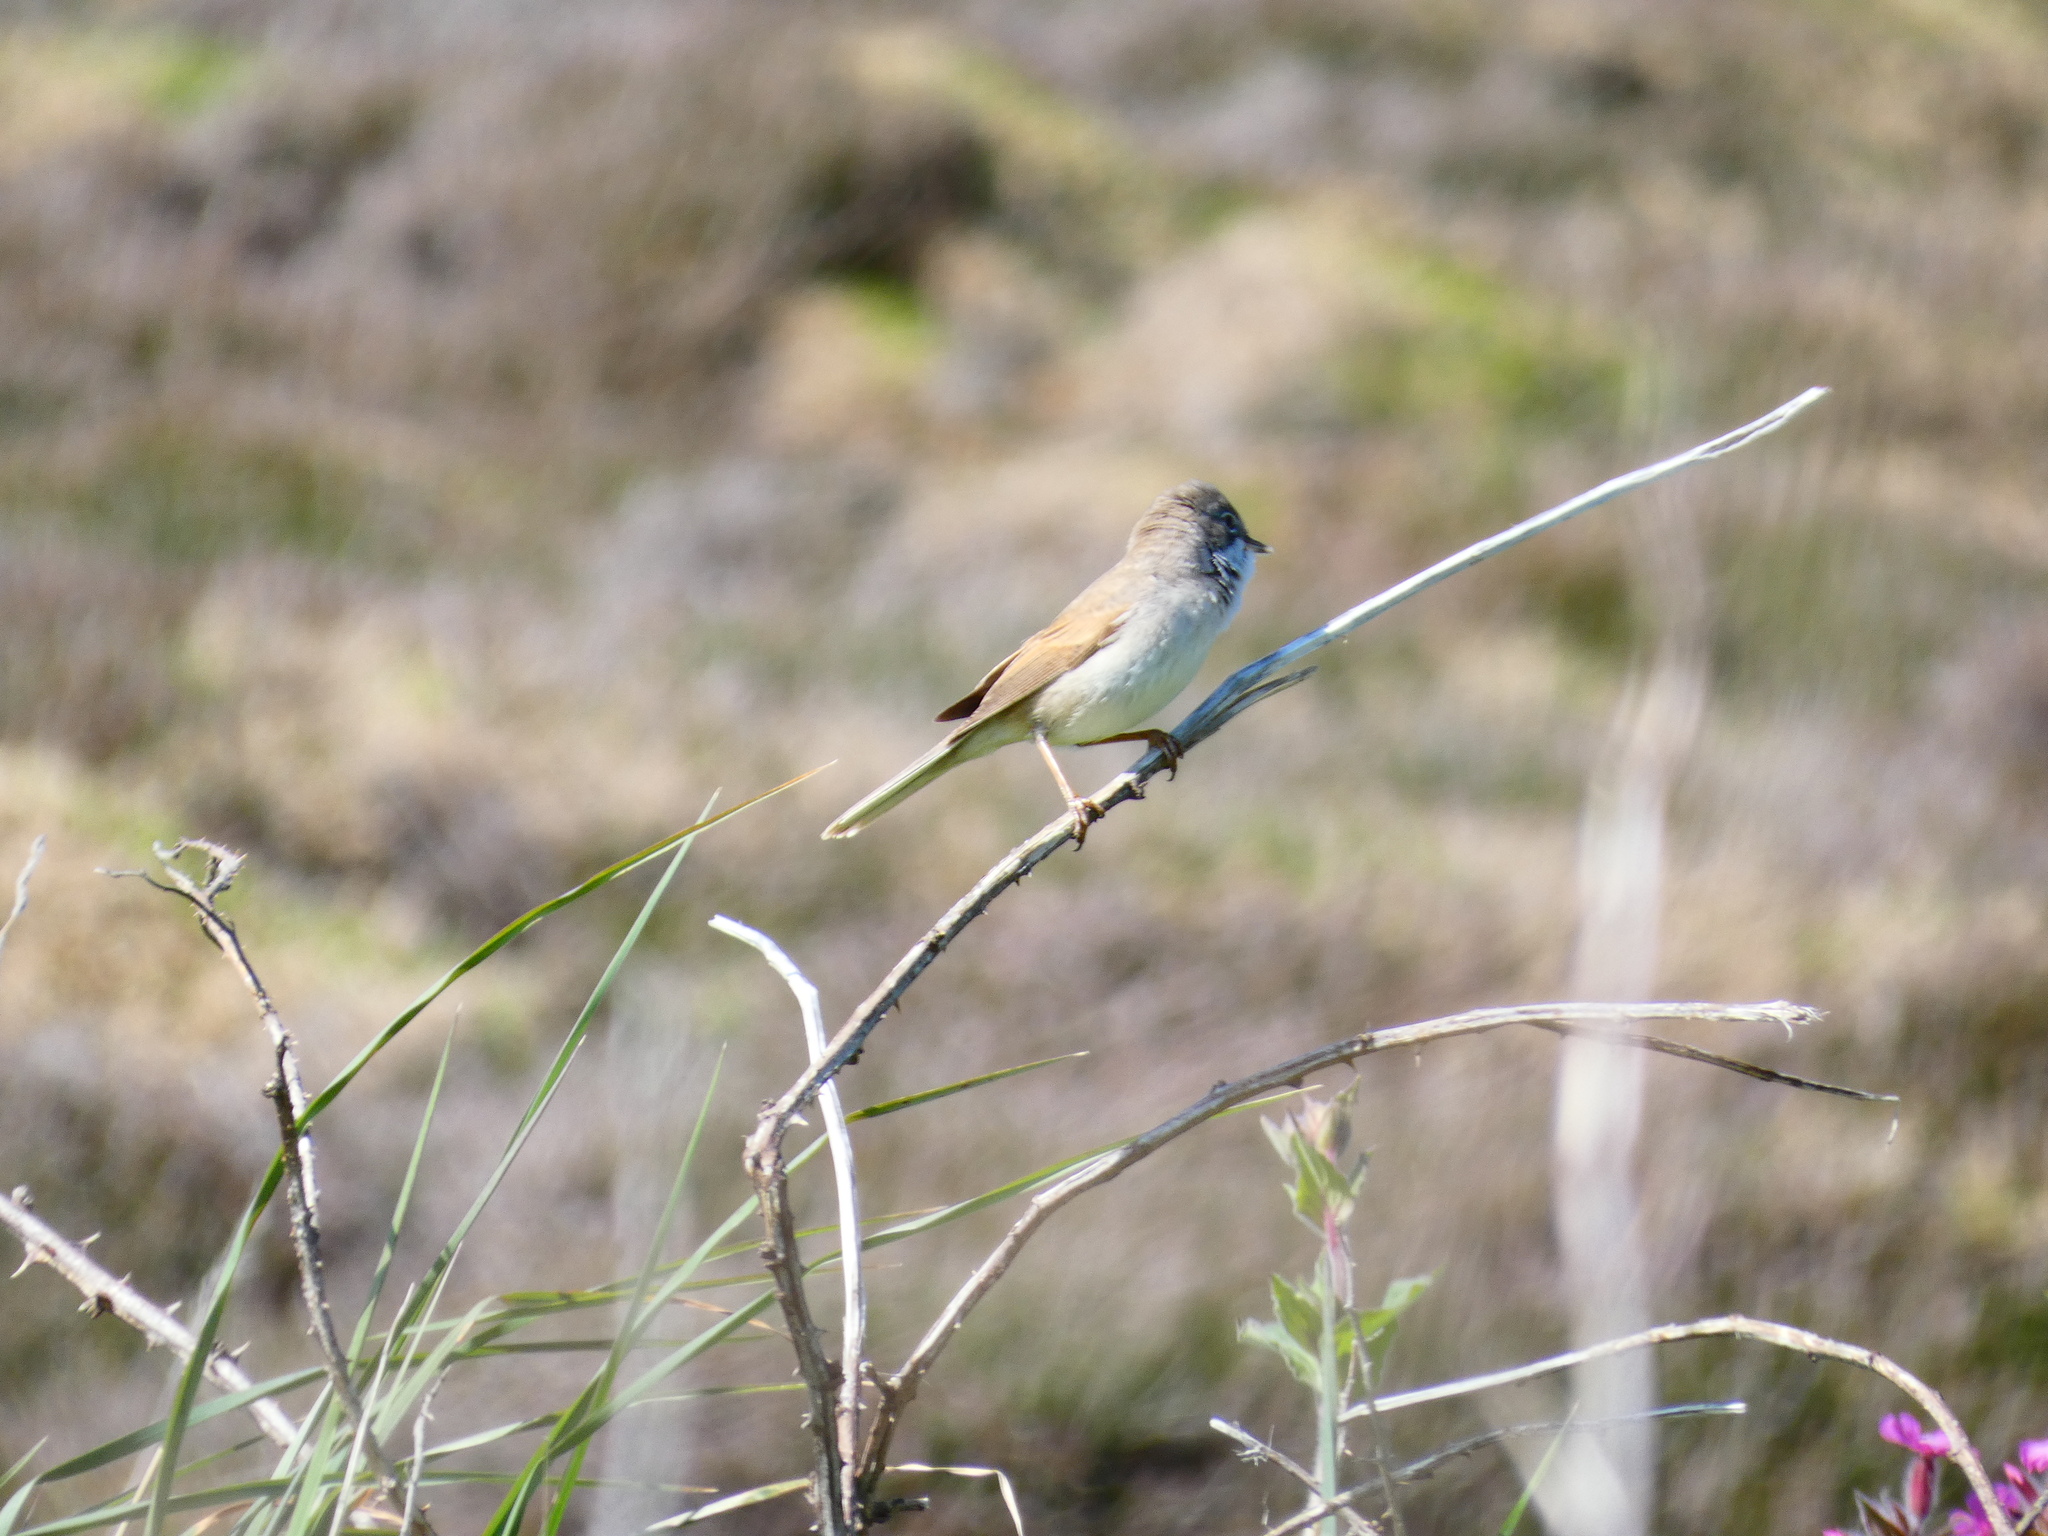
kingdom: Animalia
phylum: Chordata
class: Aves
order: Passeriformes
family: Sylviidae
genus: Sylvia
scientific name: Sylvia communis
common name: Common whitethroat
